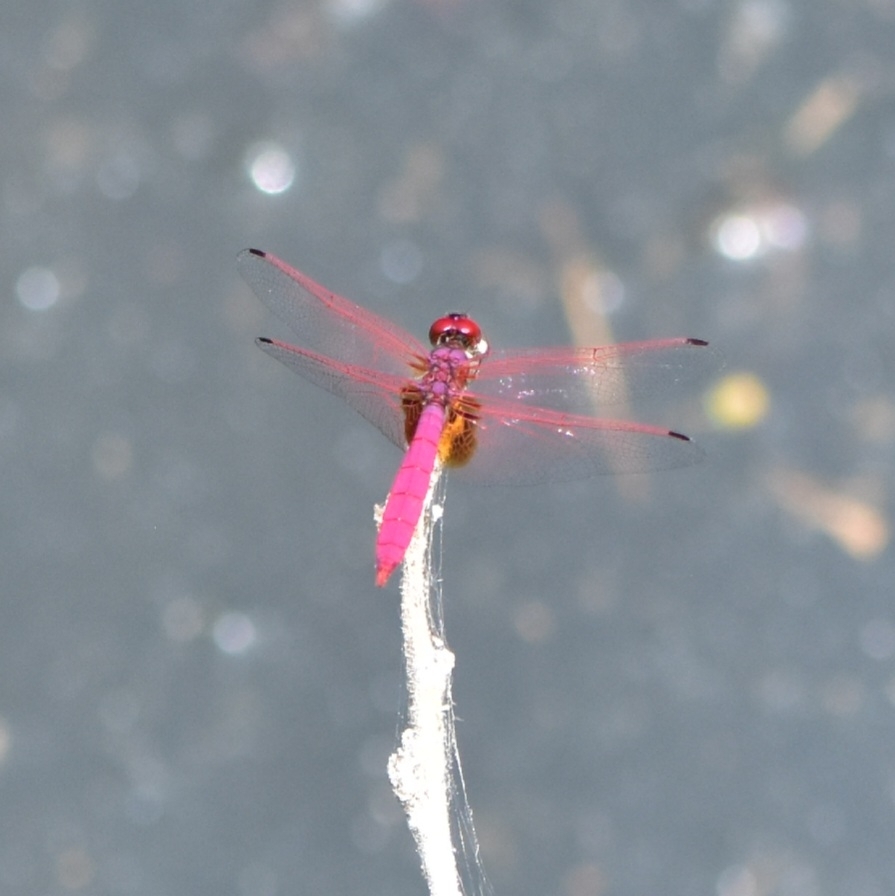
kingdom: Animalia
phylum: Arthropoda
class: Insecta
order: Odonata
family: Libellulidae
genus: Trithemis
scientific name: Trithemis aurora
